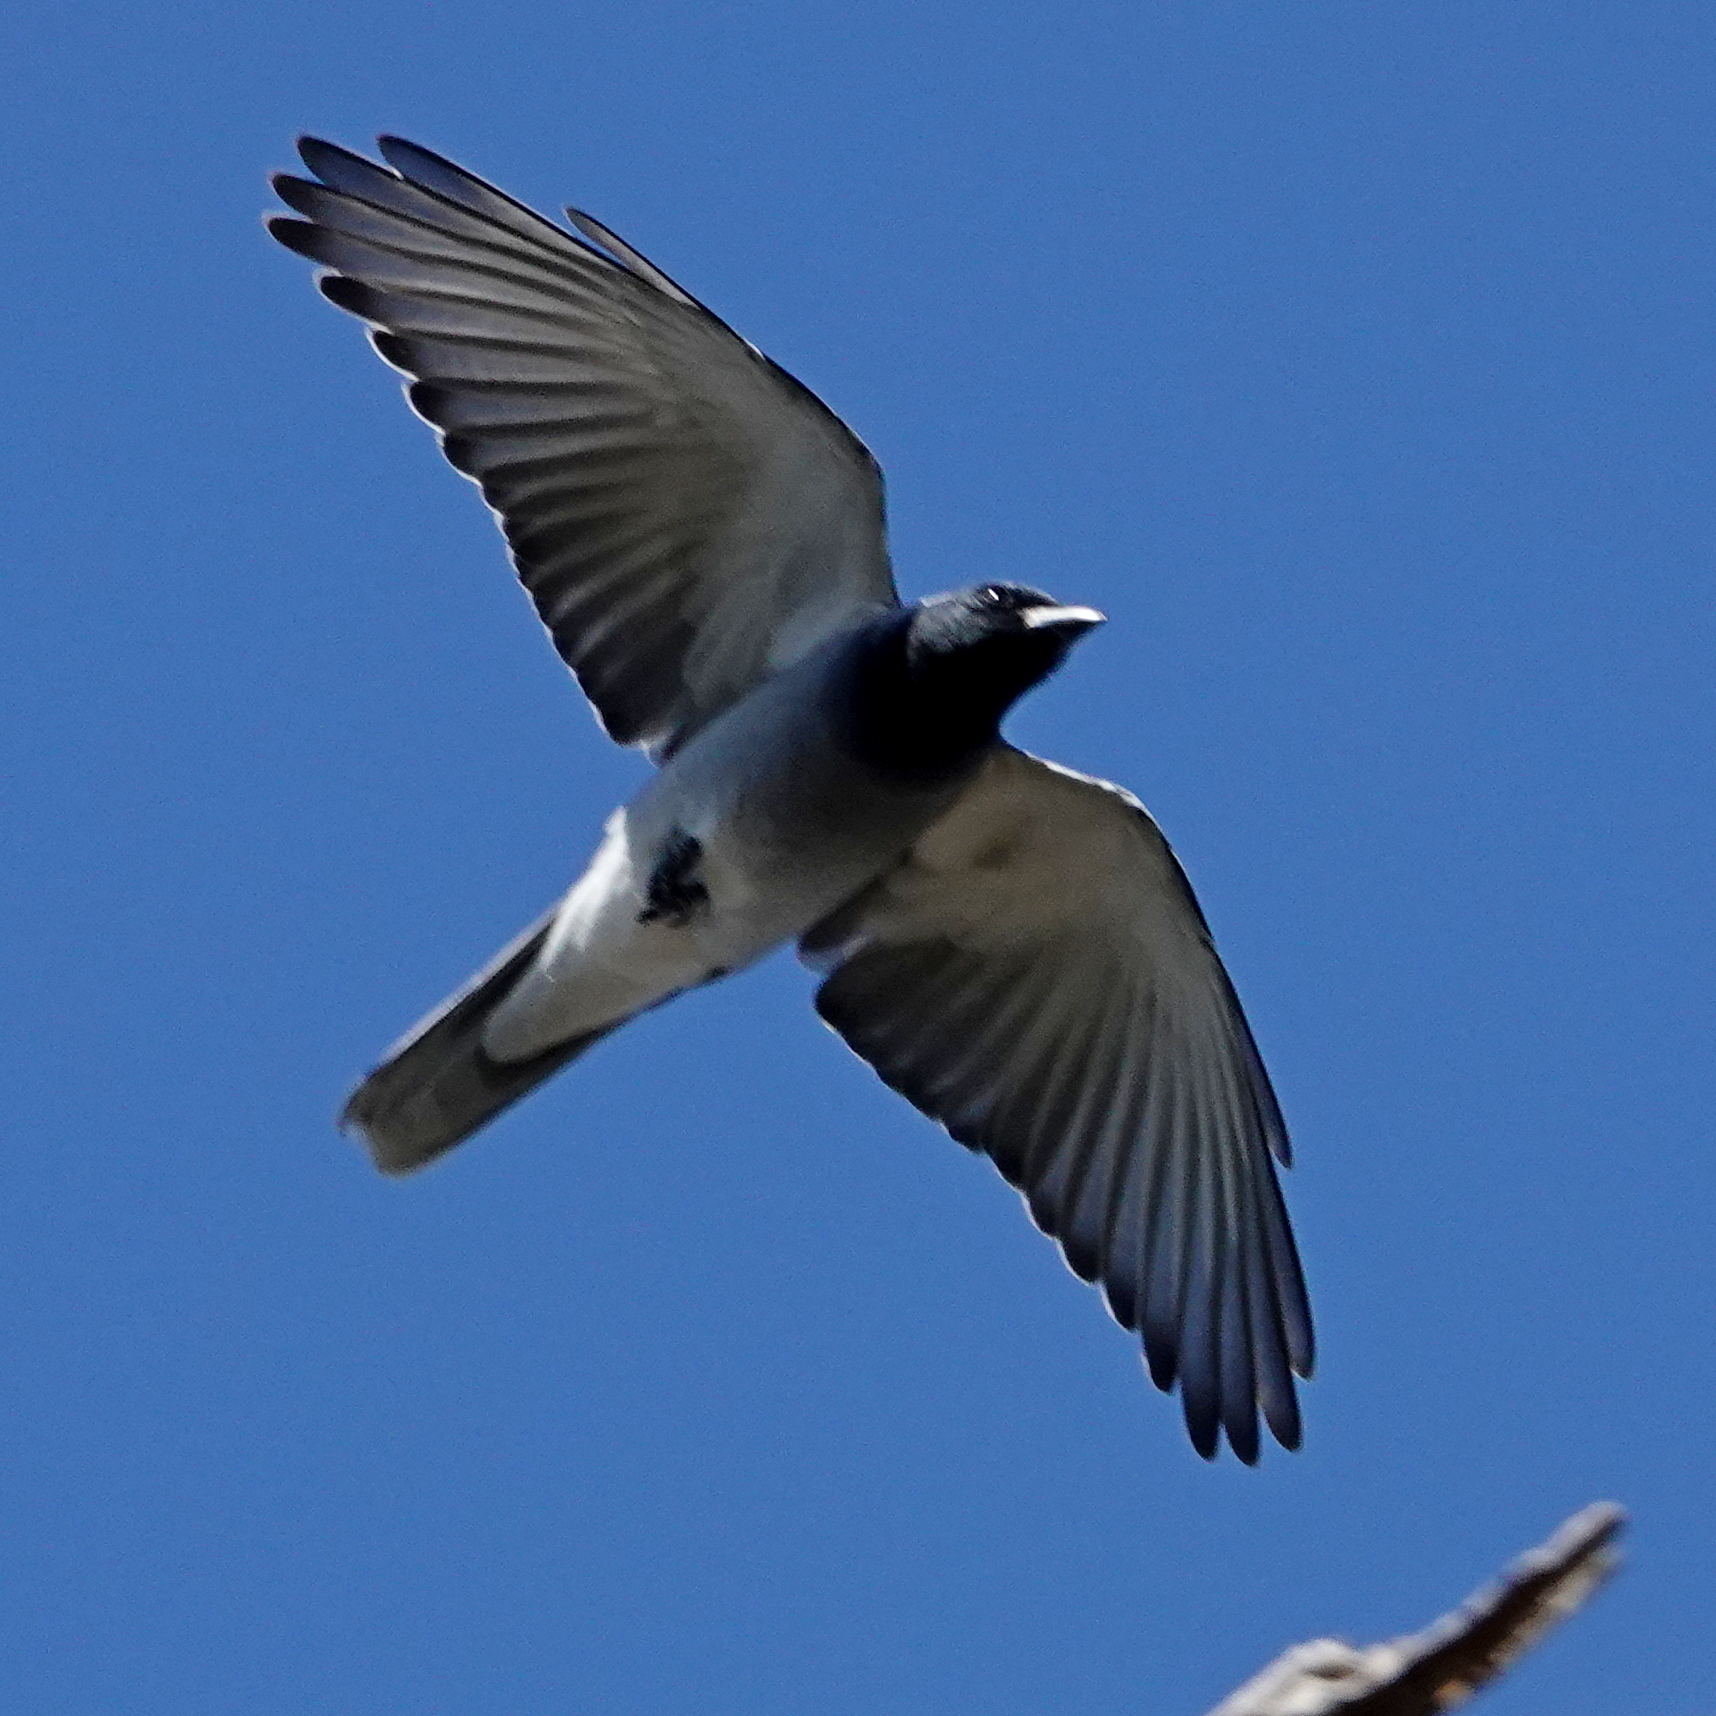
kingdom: Animalia
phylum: Chordata
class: Aves
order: Passeriformes
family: Campephagidae
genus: Coracina
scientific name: Coracina novaehollandiae
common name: Black-faced cuckooshrike
